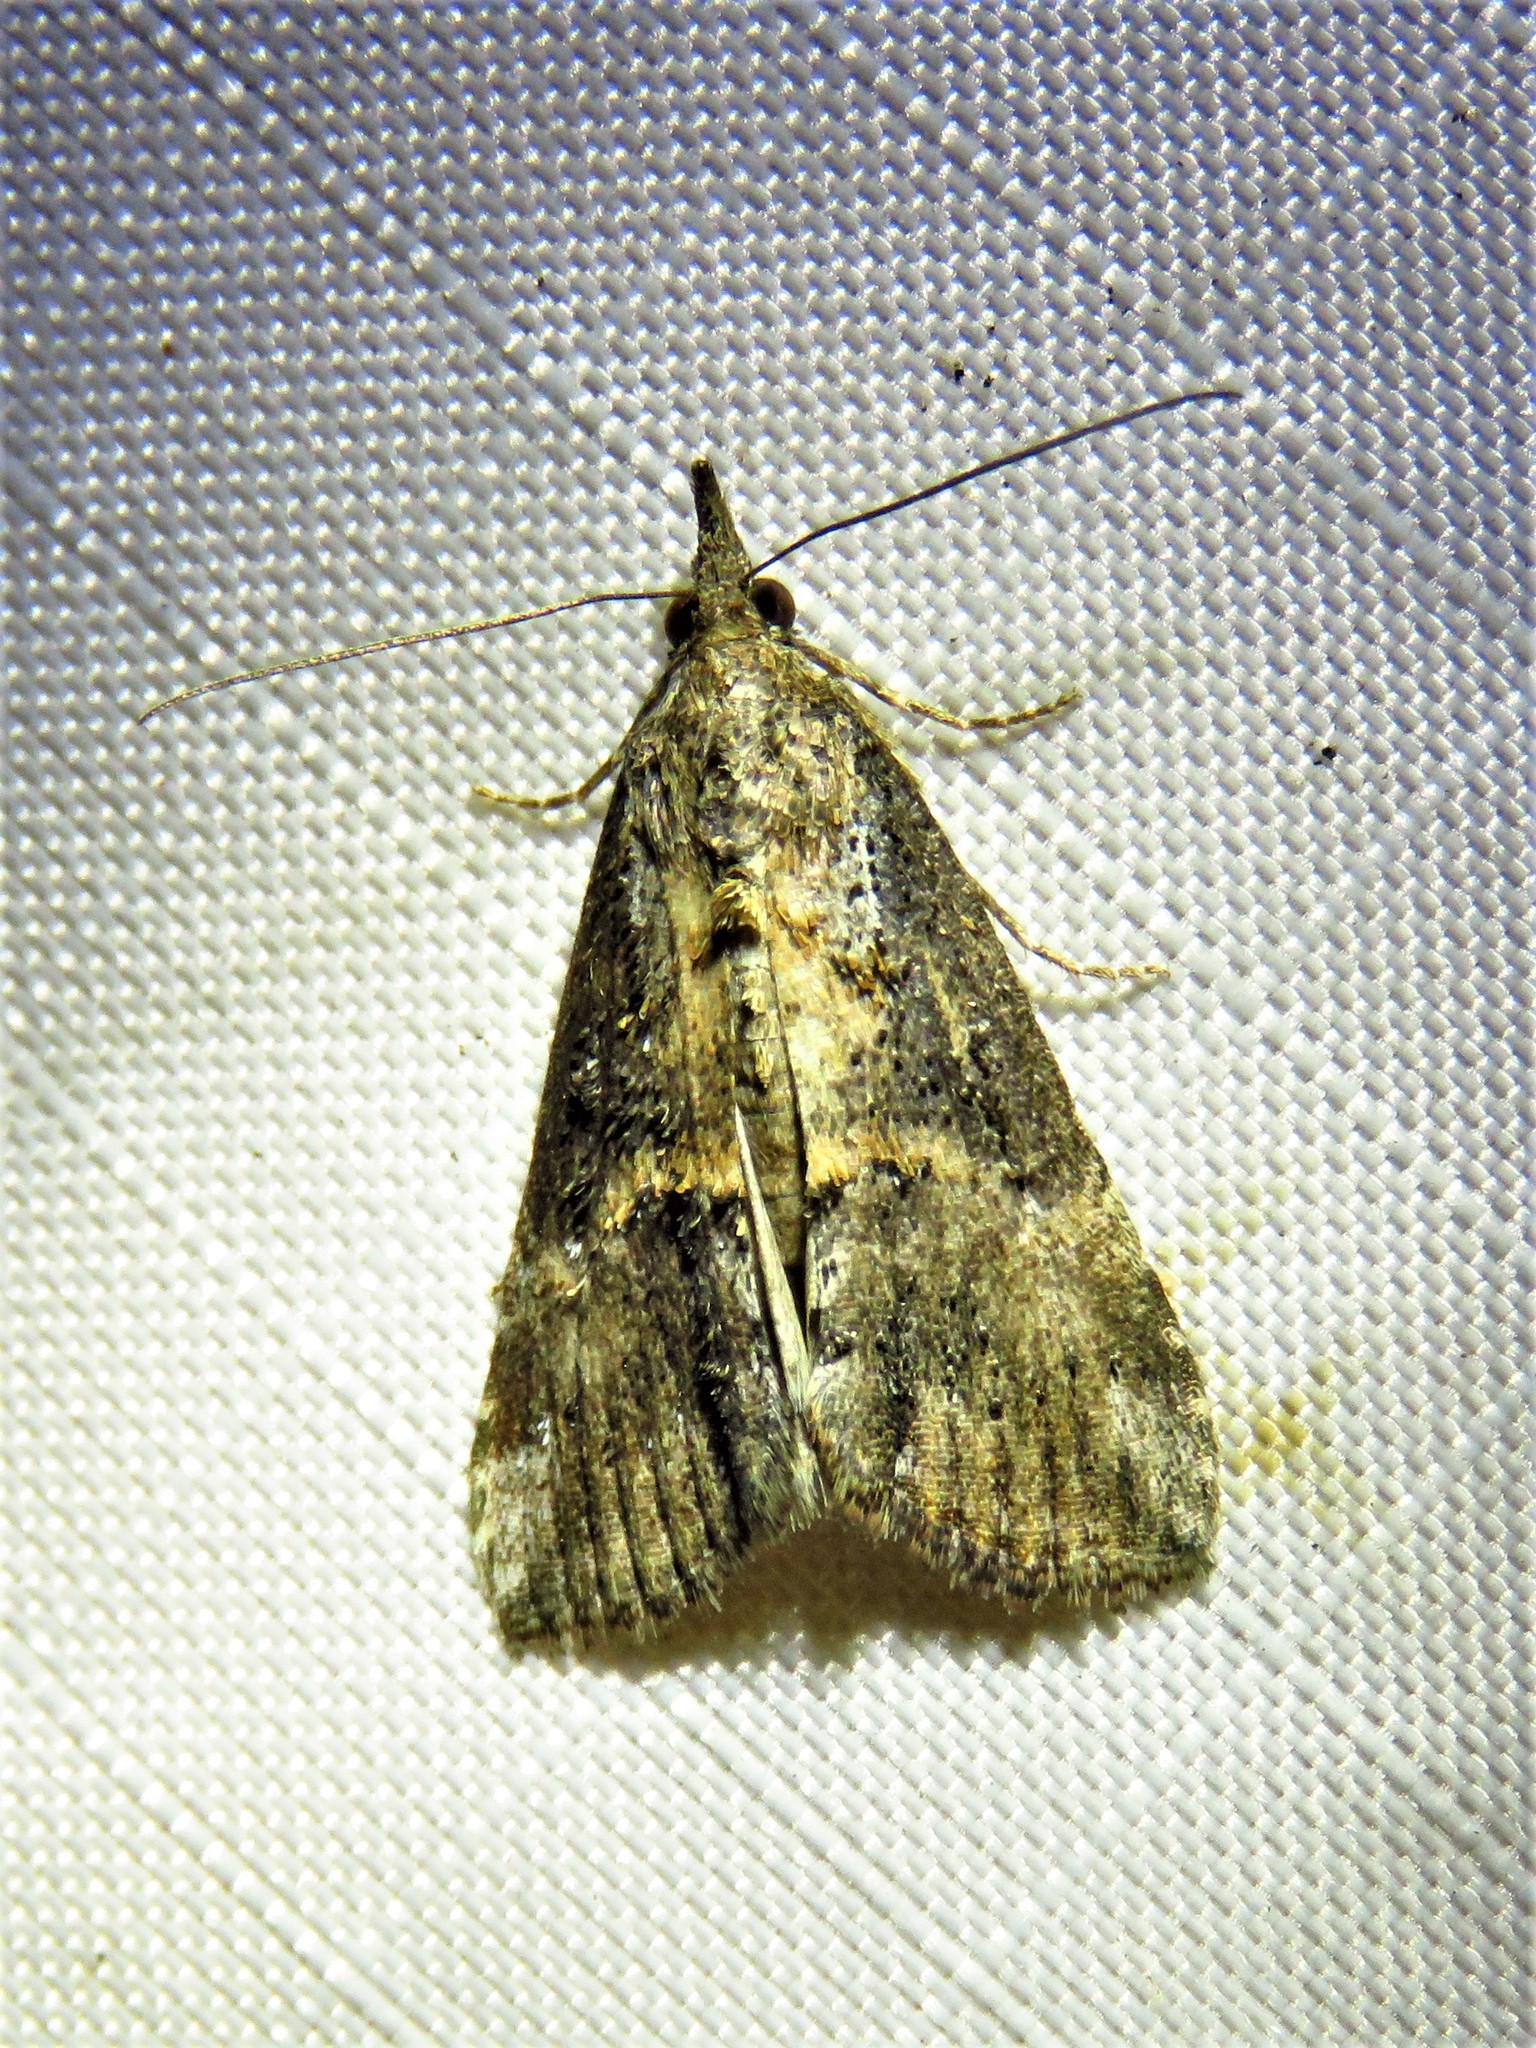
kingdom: Animalia
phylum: Arthropoda
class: Insecta
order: Lepidoptera
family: Erebidae
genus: Hypena
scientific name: Hypena scabra
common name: Green cloverworm
